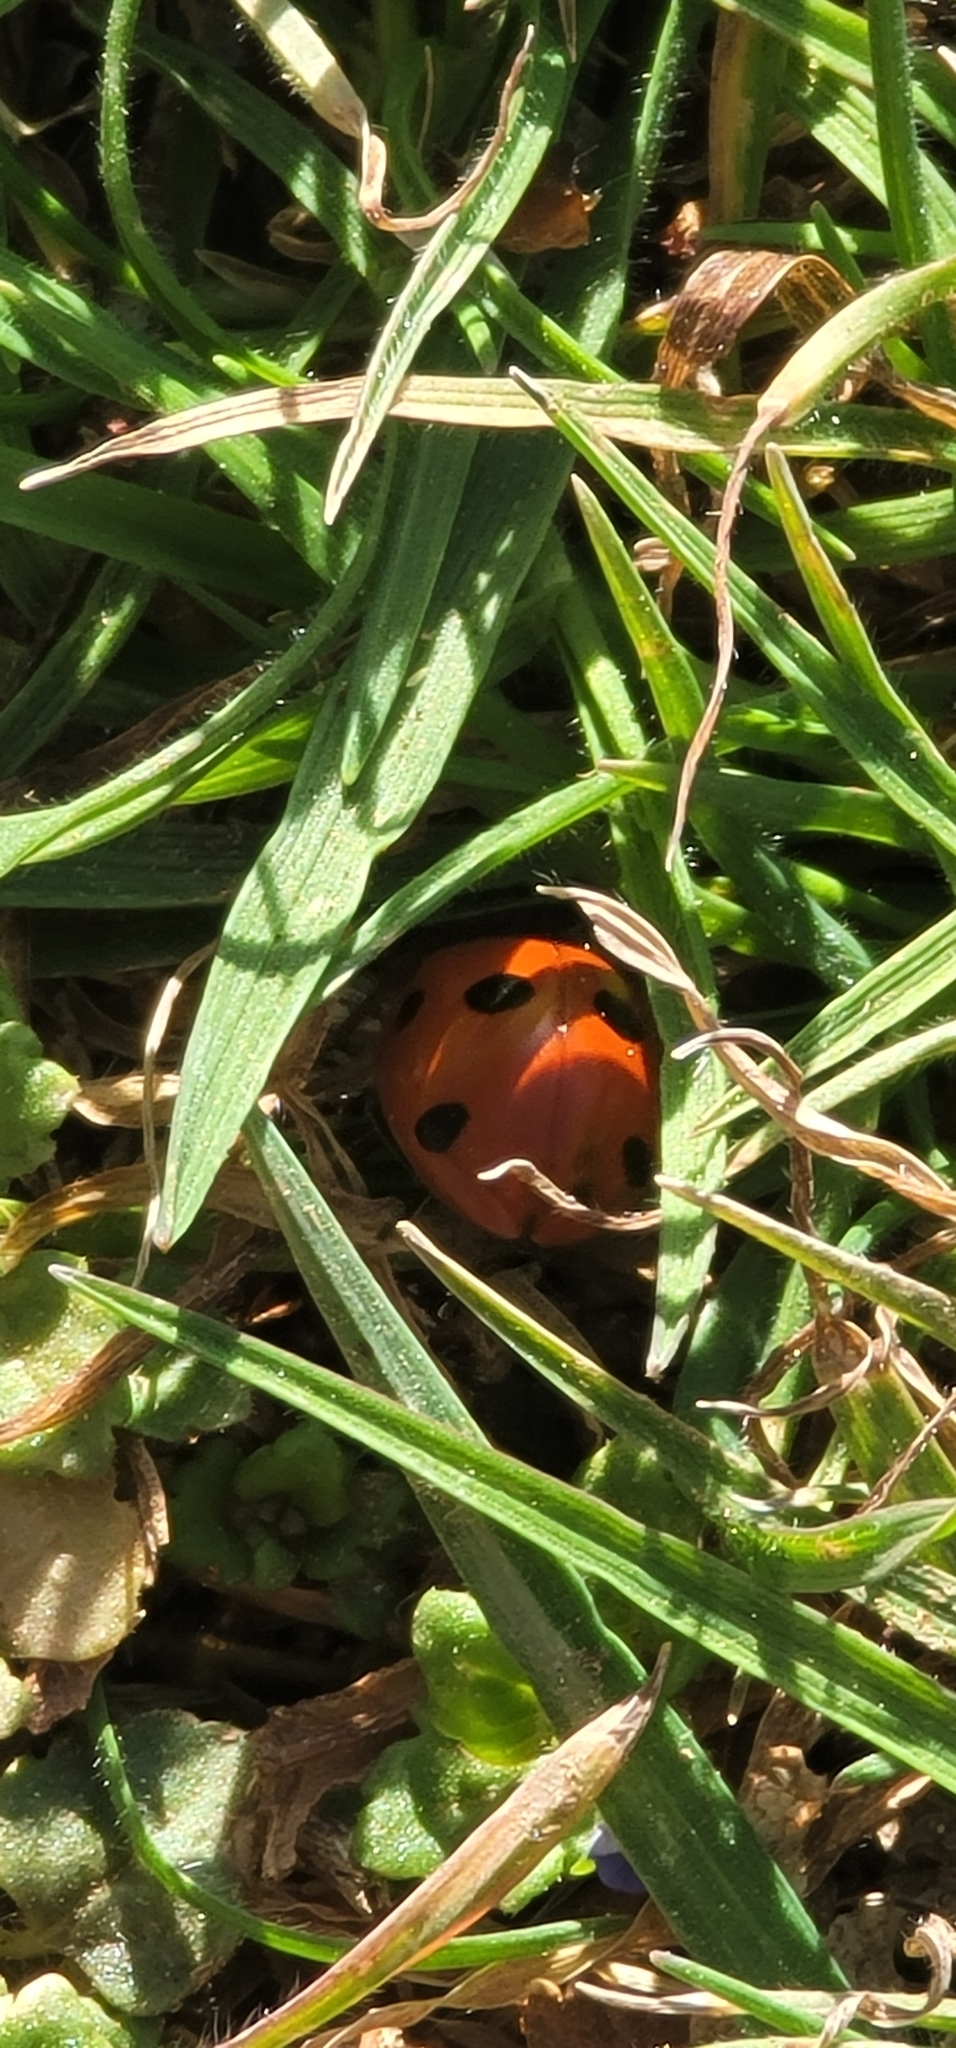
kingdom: Animalia
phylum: Arthropoda
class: Insecta
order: Coleoptera
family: Coccinellidae
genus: Coccinella
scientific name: Coccinella septempunctata
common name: Sevenspotted lady beetle
